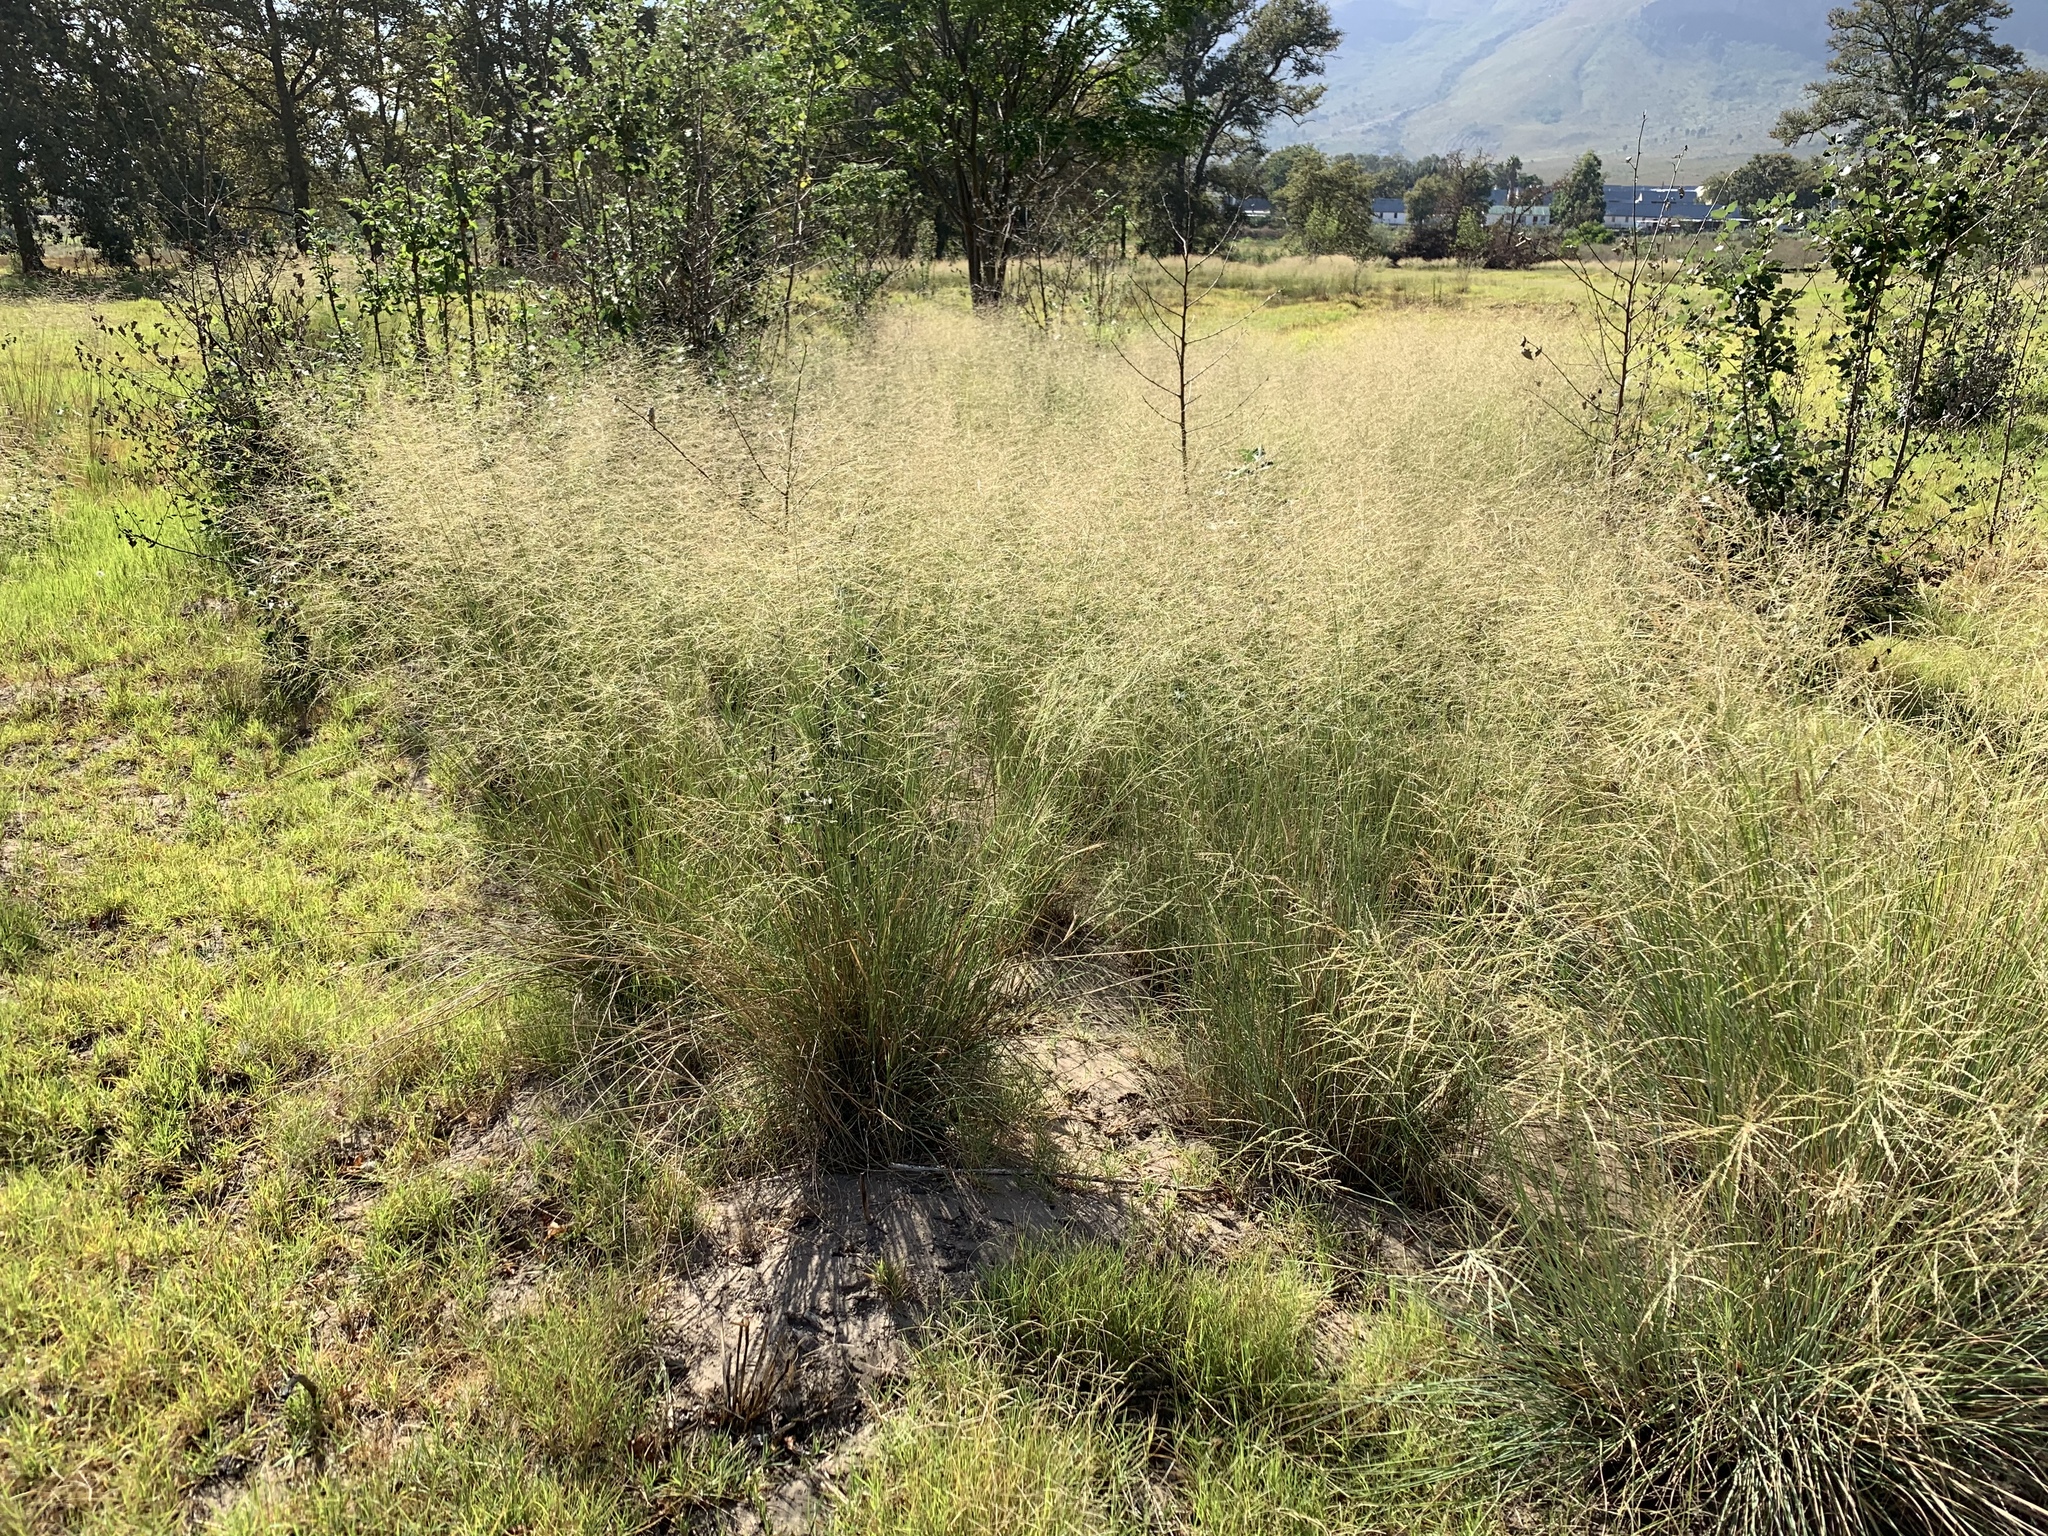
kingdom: Plantae
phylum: Tracheophyta
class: Liliopsida
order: Poales
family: Poaceae
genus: Eragrostis
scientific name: Eragrostis curvula
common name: African love-grass
